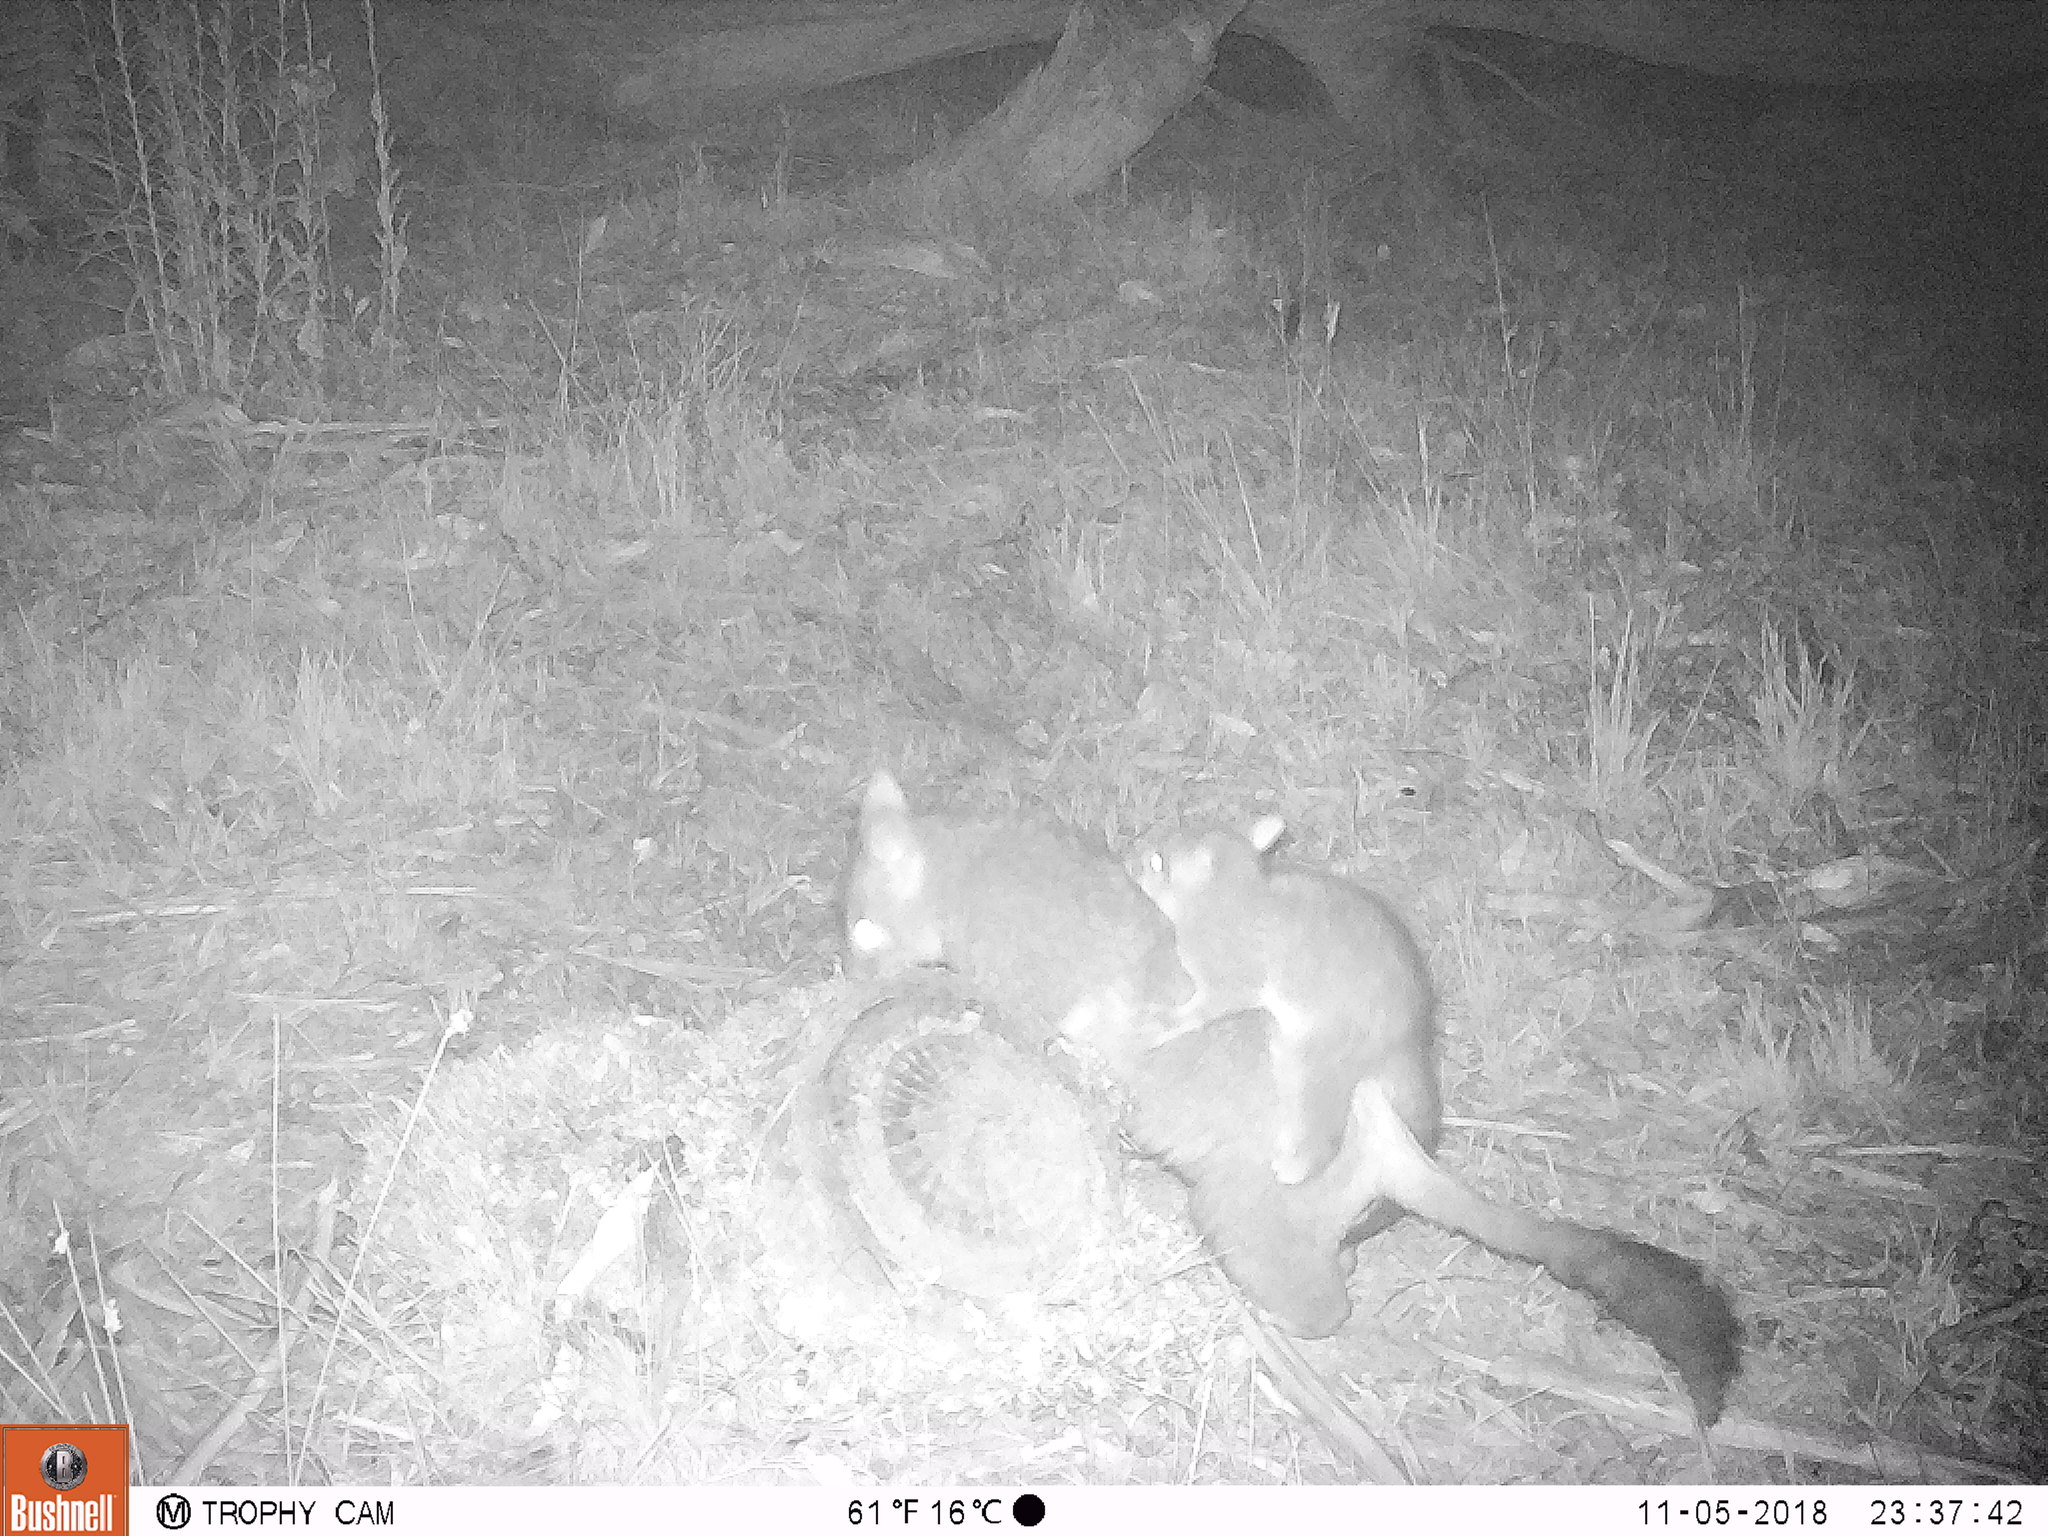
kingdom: Animalia
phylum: Chordata
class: Mammalia
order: Diprotodontia
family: Phalangeridae
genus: Trichosurus
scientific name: Trichosurus vulpecula
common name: Common brushtail
